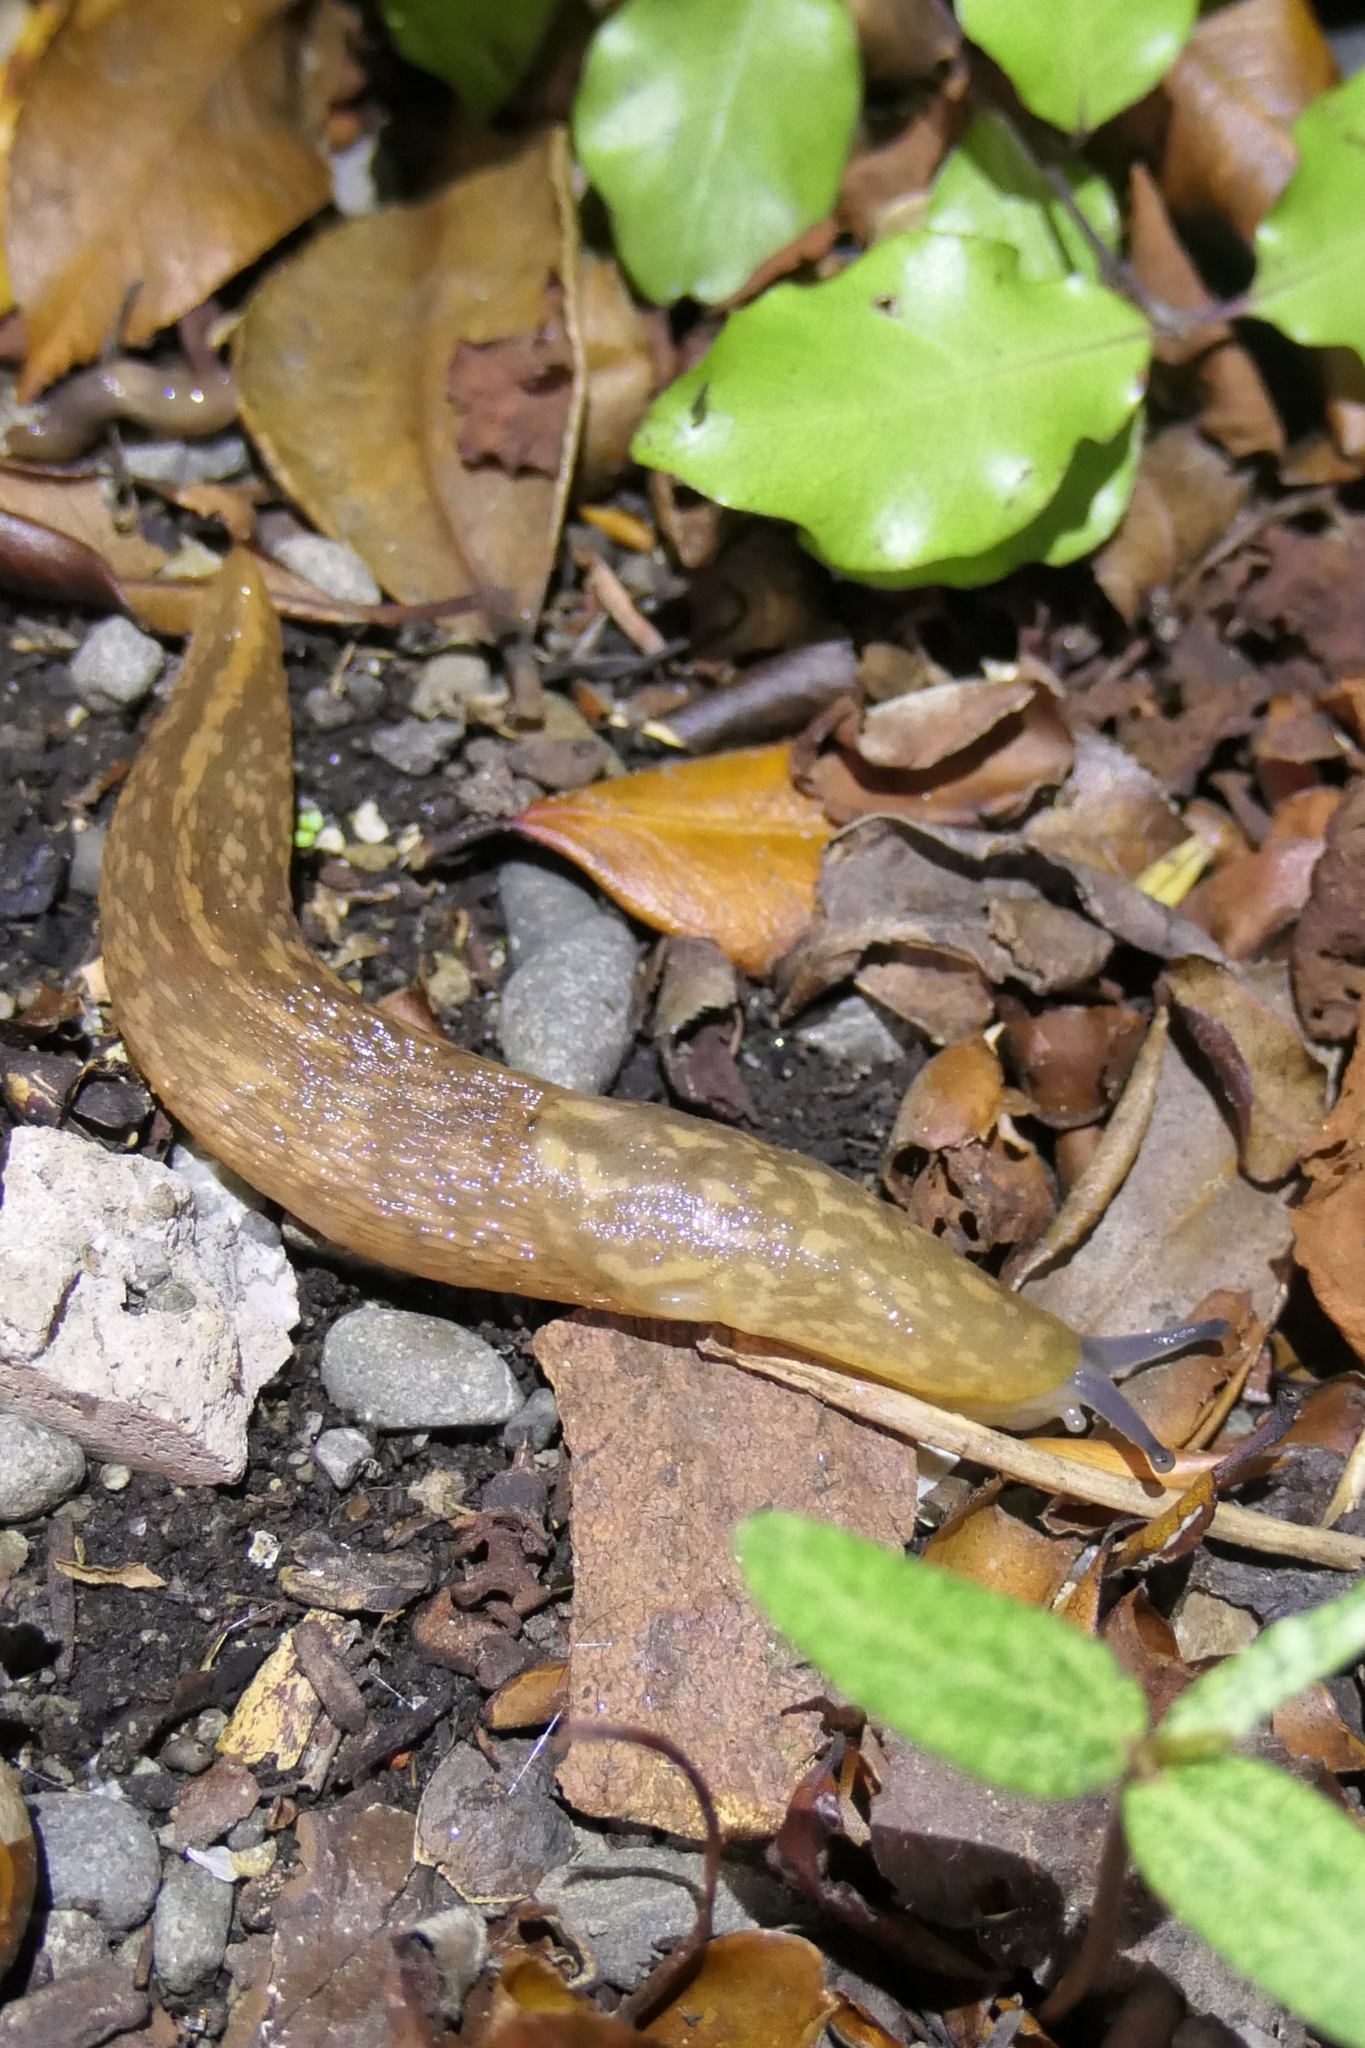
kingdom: Animalia
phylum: Mollusca
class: Gastropoda
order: Stylommatophora
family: Limacidae
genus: Limacus
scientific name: Limacus flavus
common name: Yellow gardenslug
